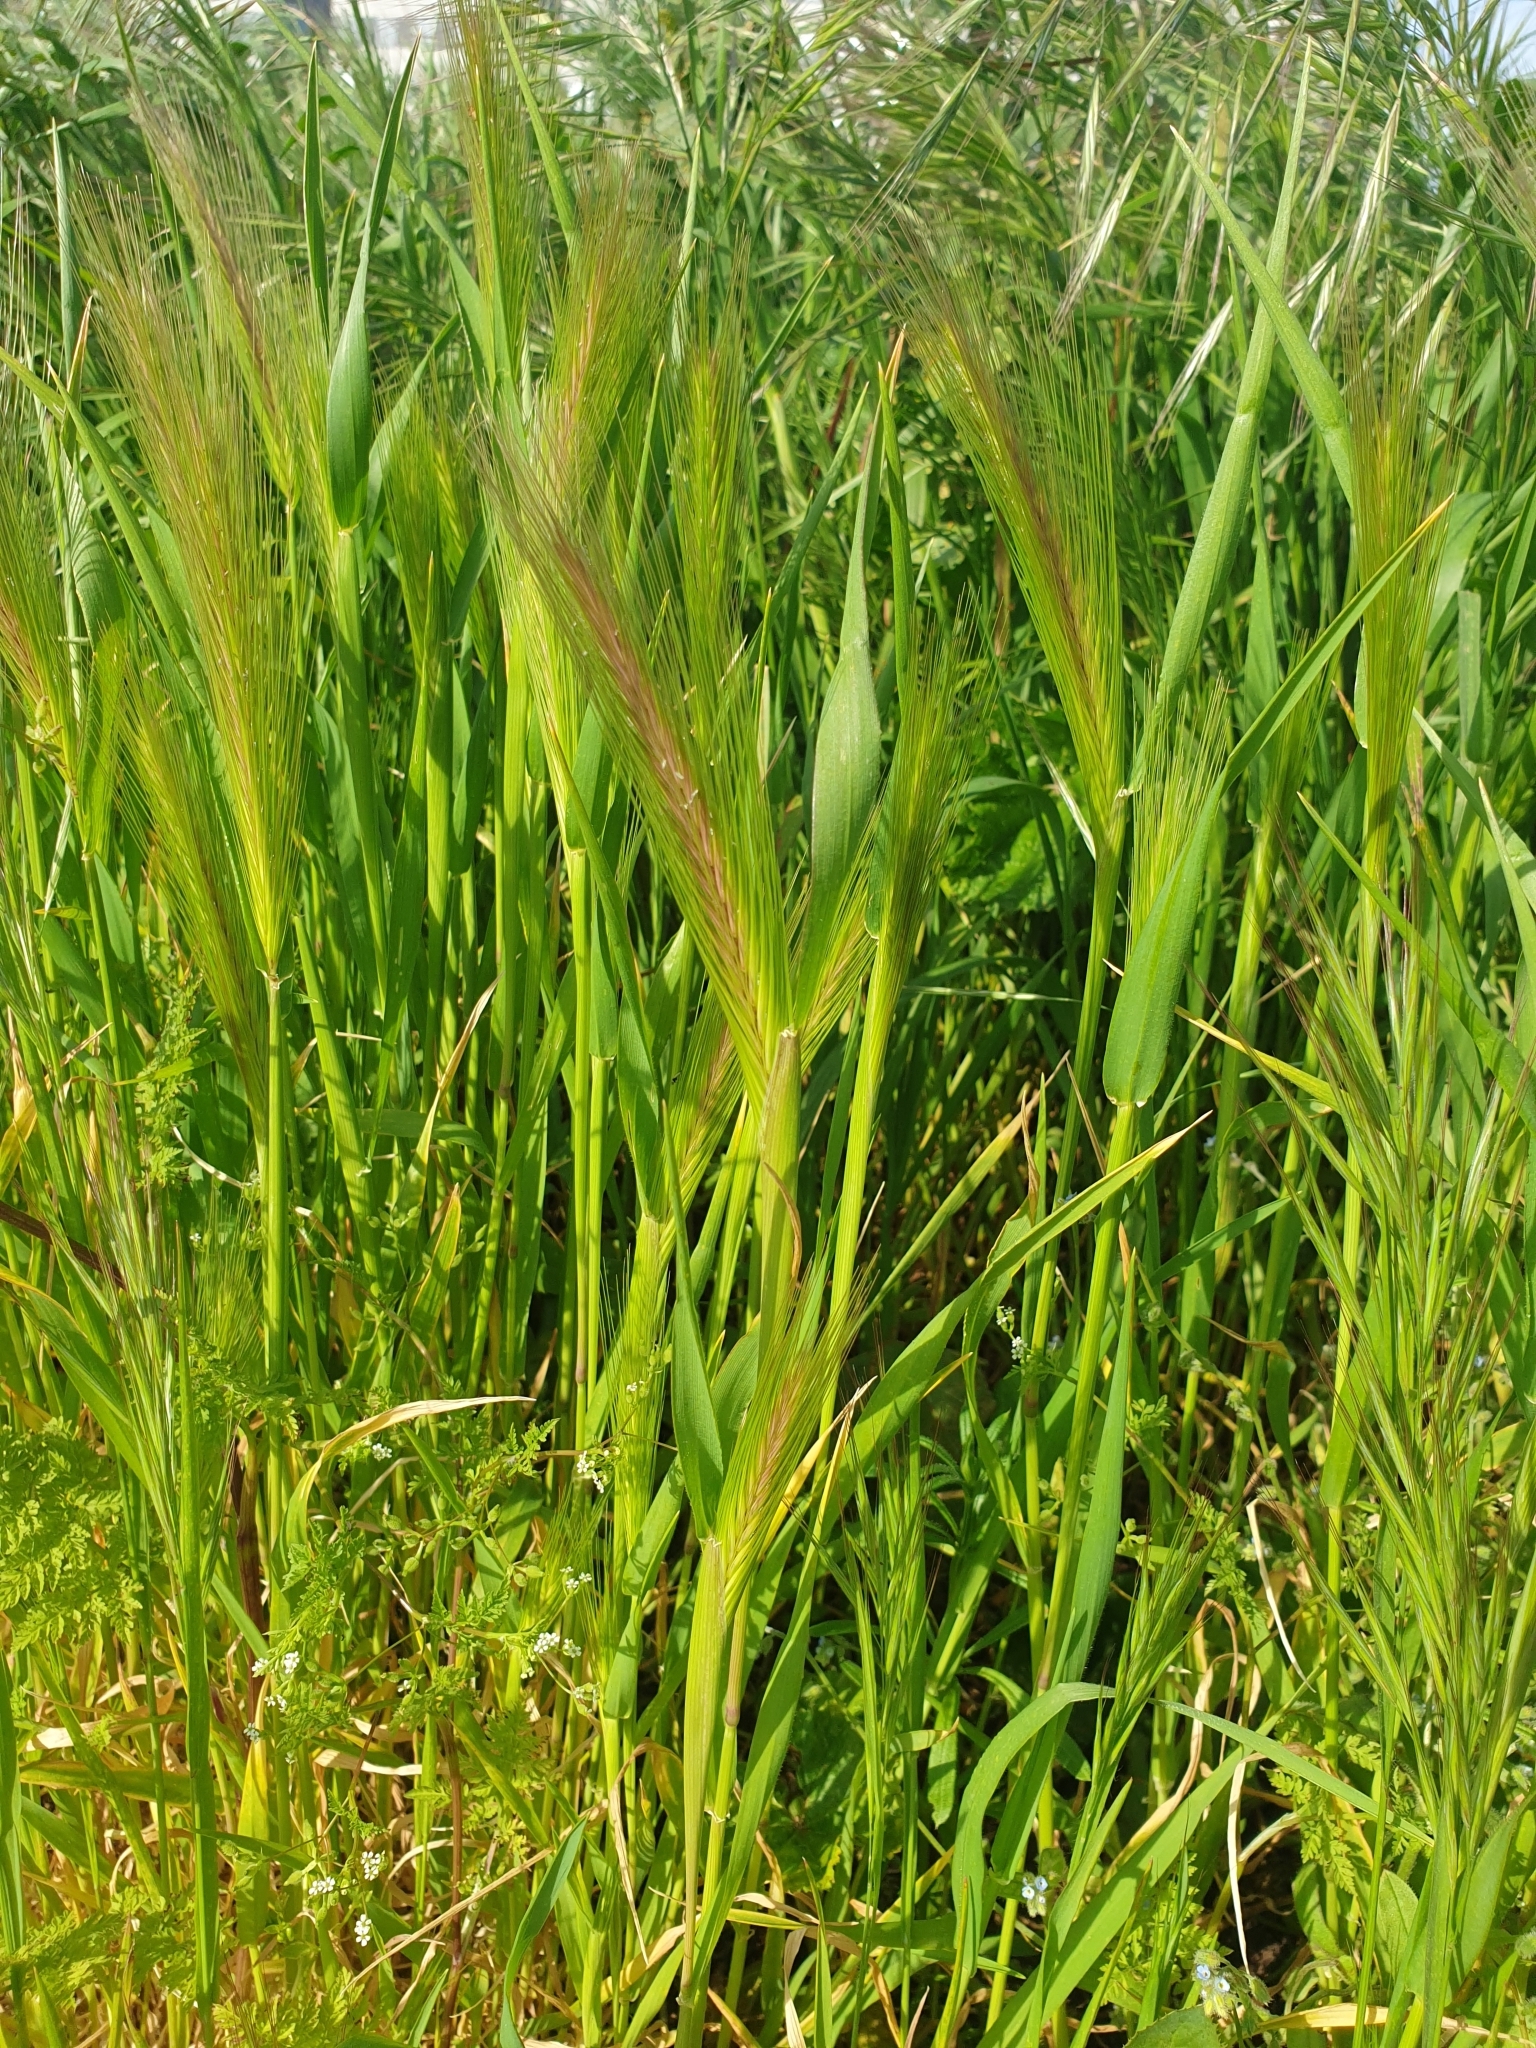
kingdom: Plantae
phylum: Tracheophyta
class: Liliopsida
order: Poales
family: Poaceae
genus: Hordeum
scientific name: Hordeum murinum
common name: Wall barley
